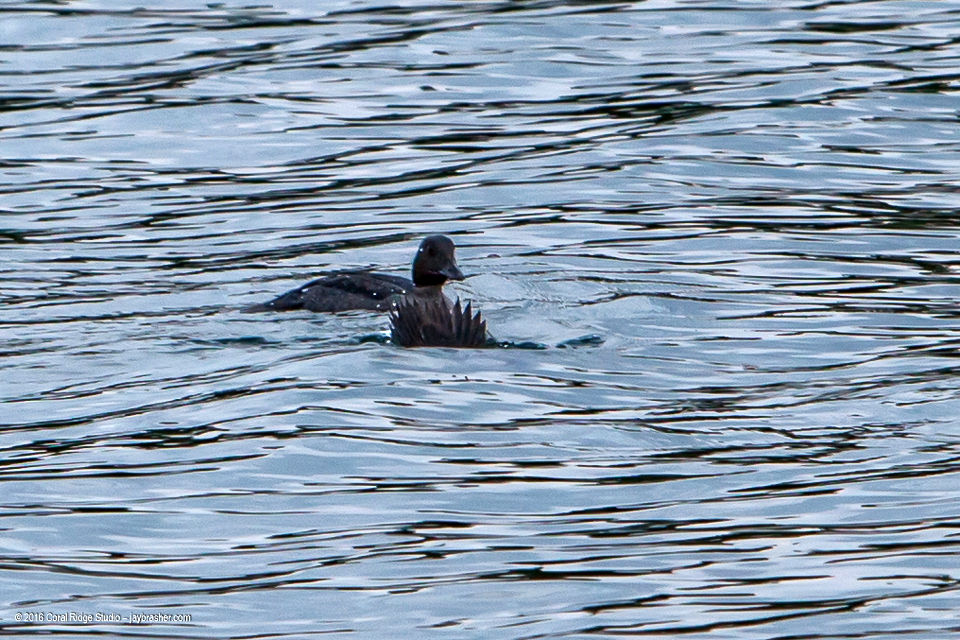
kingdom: Animalia
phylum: Chordata
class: Aves
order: Anseriformes
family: Anatidae
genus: Bucephala
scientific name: Bucephala clangula
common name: Common goldeneye
